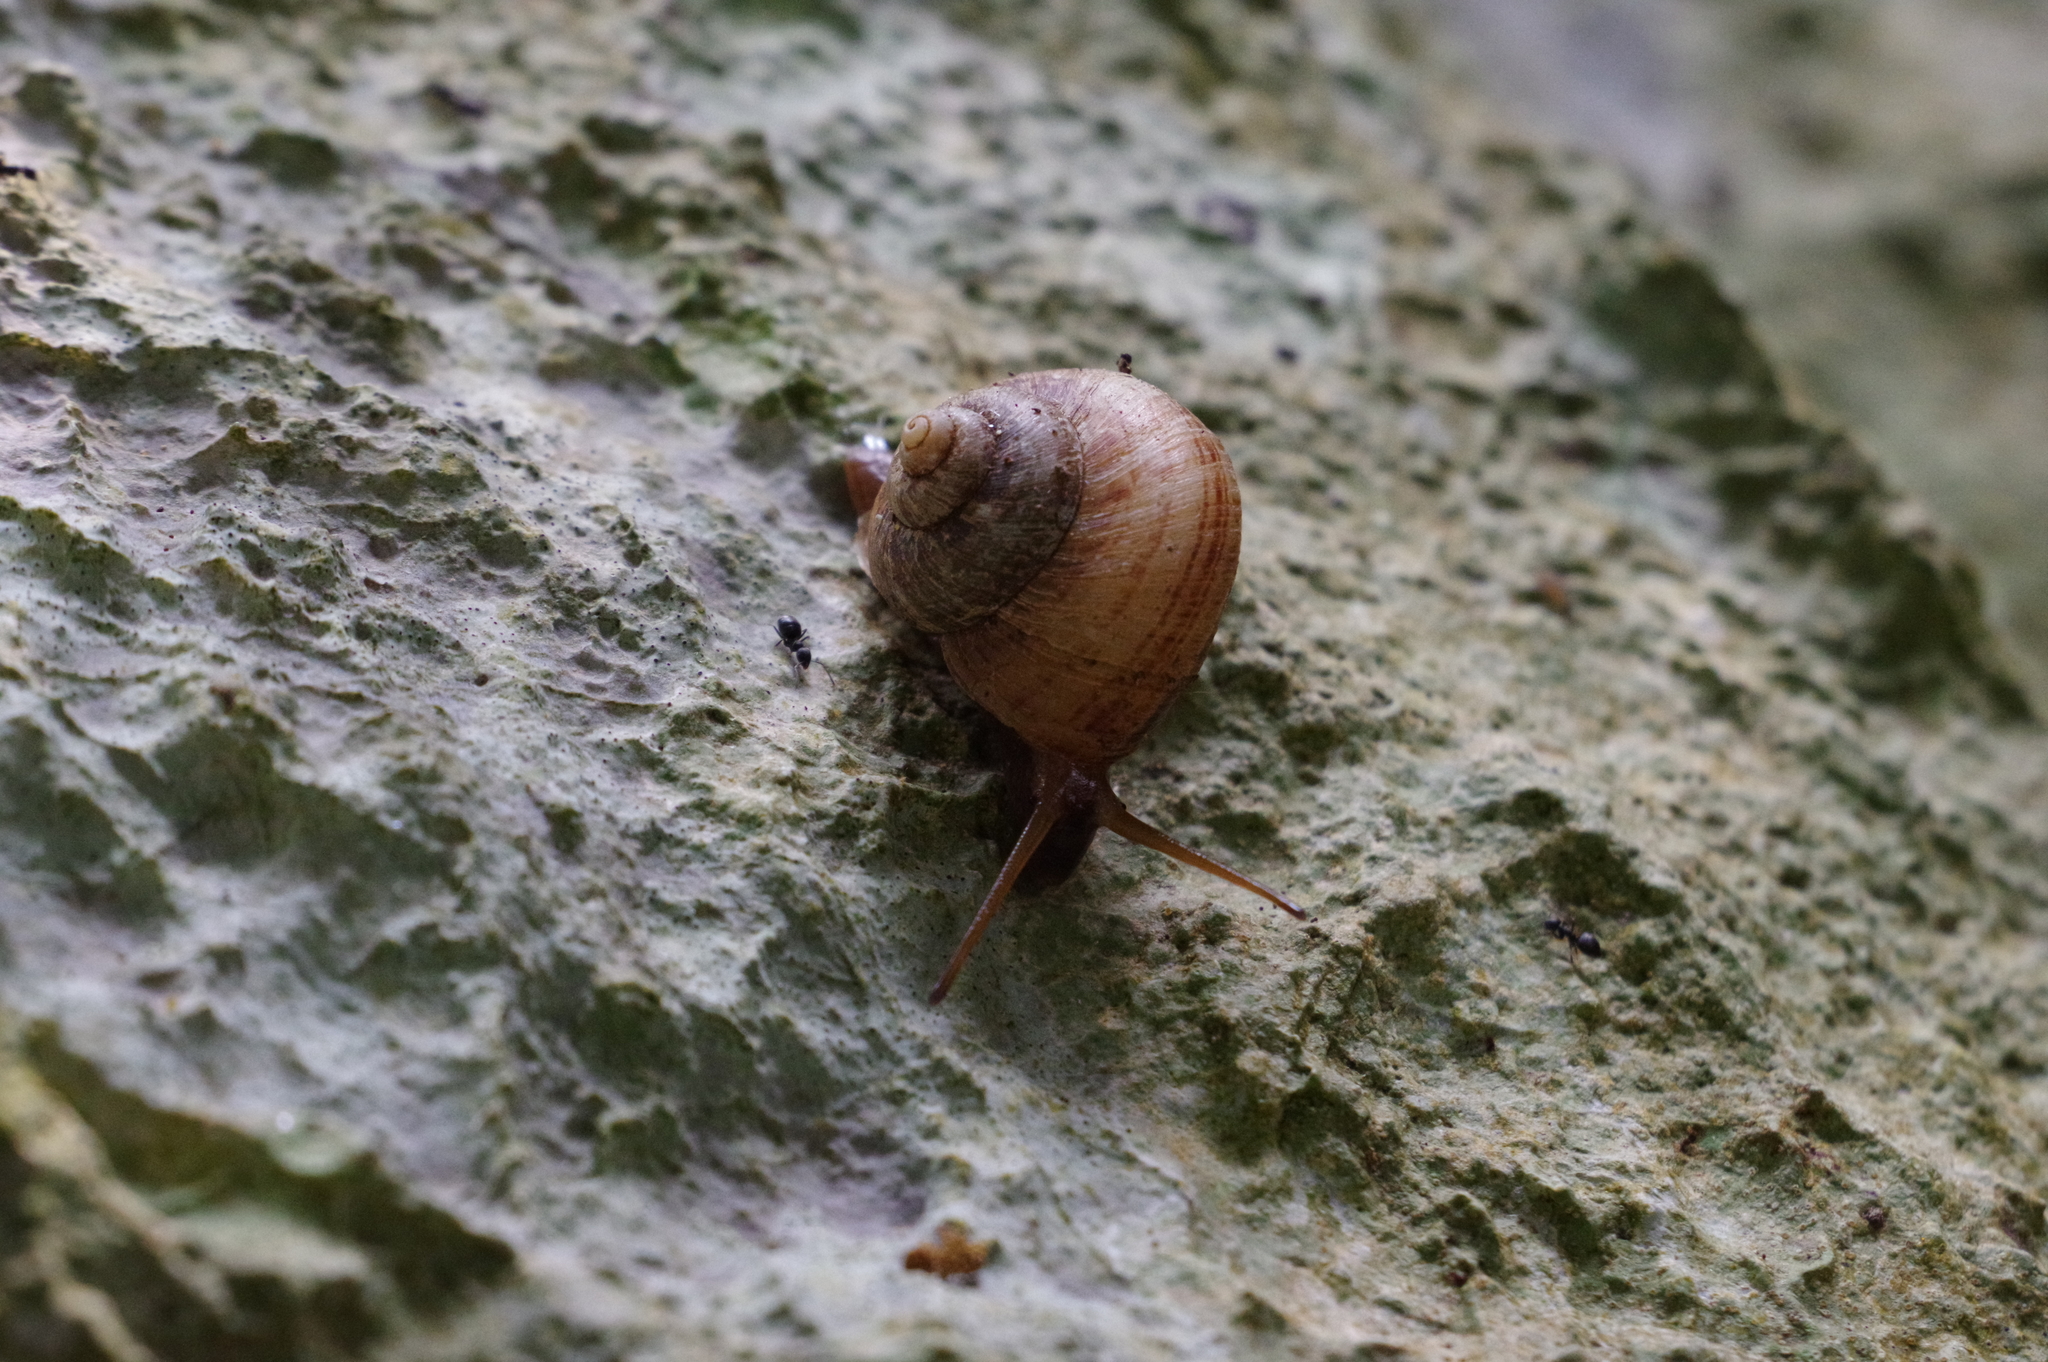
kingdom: Animalia
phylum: Mollusca
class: Gastropoda
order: Architaenioglossa
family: Cyclophoridae
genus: Cyclophorus
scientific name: Cyclophorus turgidus
